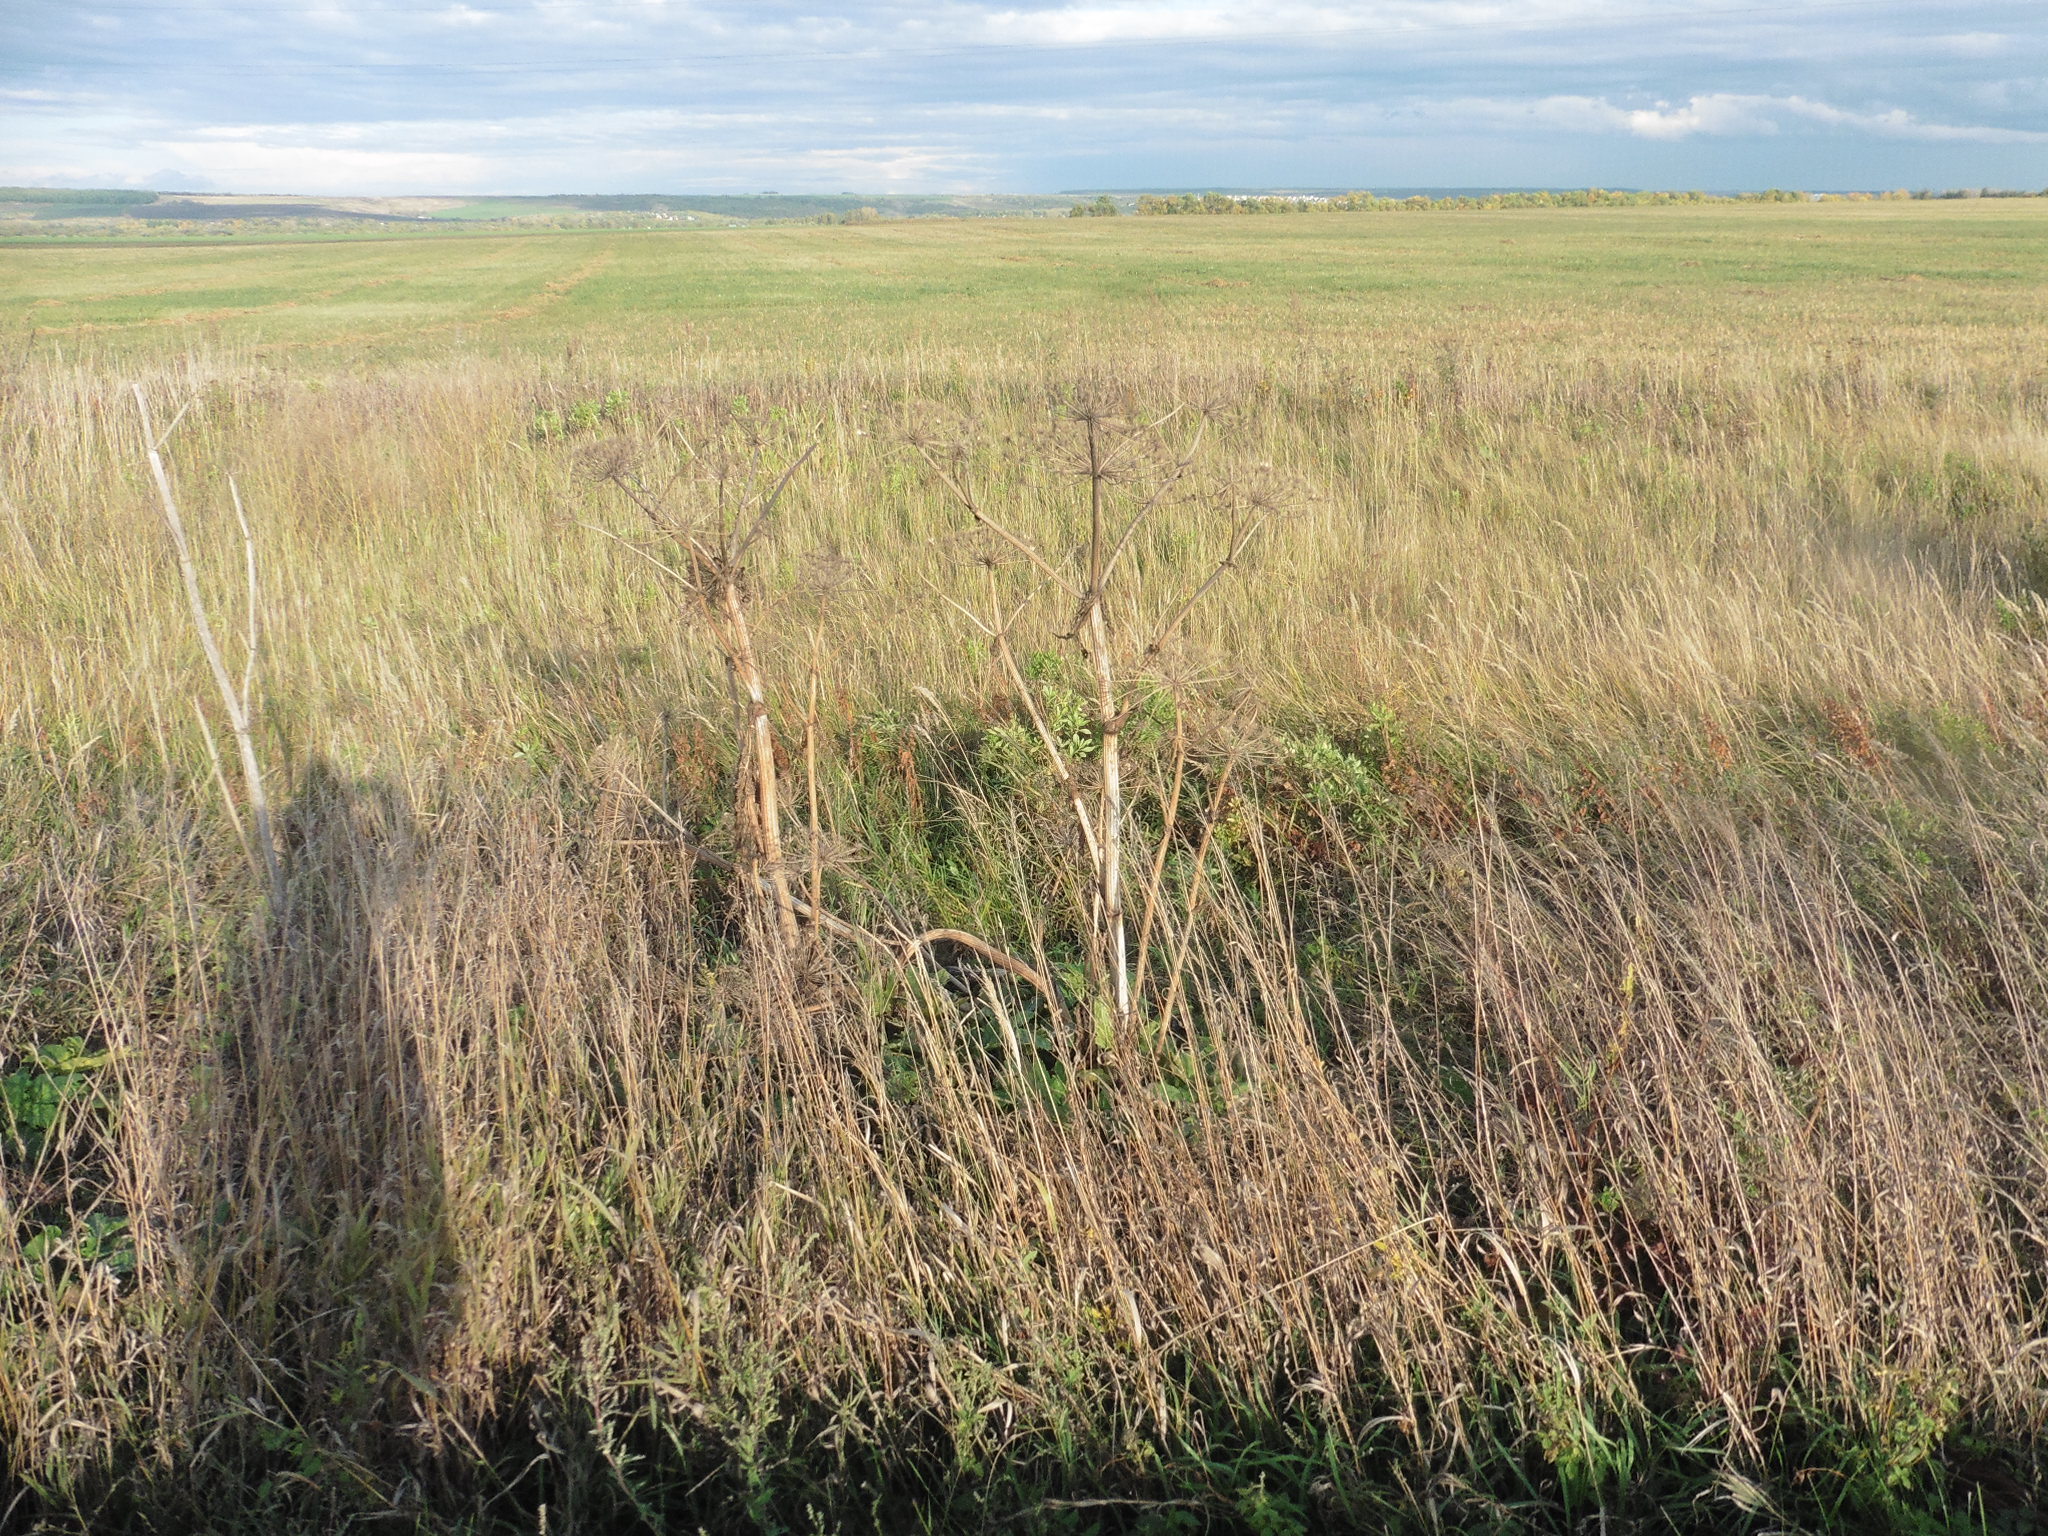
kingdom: Plantae
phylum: Tracheophyta
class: Magnoliopsida
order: Apiales
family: Apiaceae
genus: Heracleum
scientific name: Heracleum sosnowskyi
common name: Sosnowsky's hogweed
